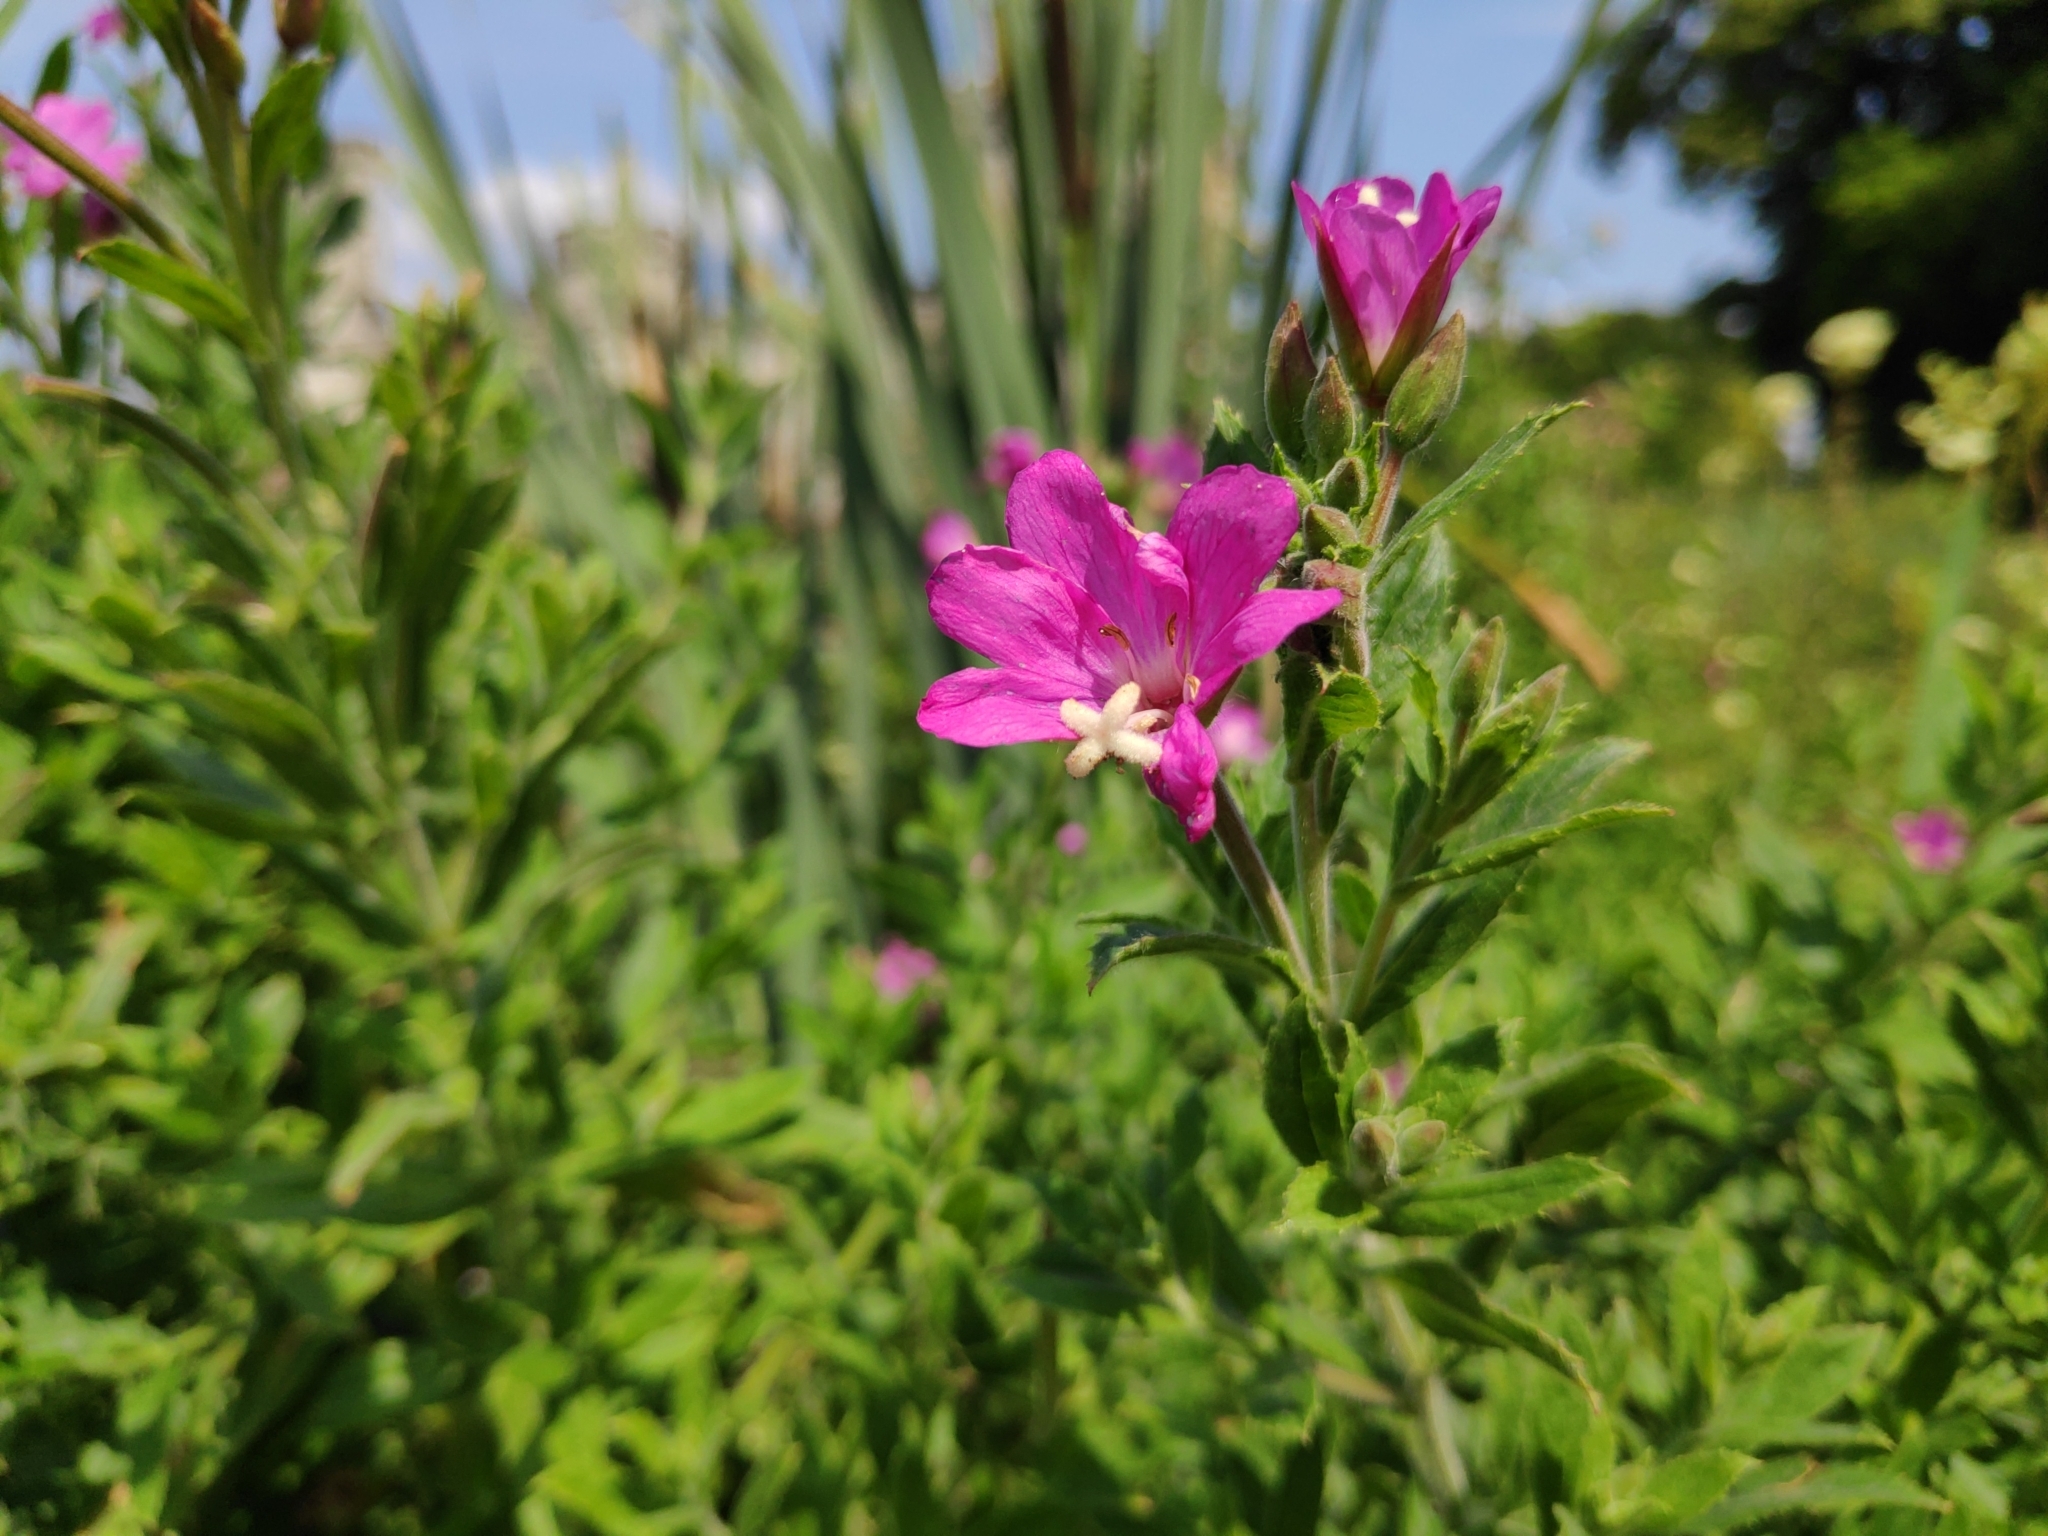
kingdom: Plantae
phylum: Tracheophyta
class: Magnoliopsida
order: Myrtales
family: Onagraceae
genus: Epilobium
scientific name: Epilobium hirsutum
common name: Great willowherb
